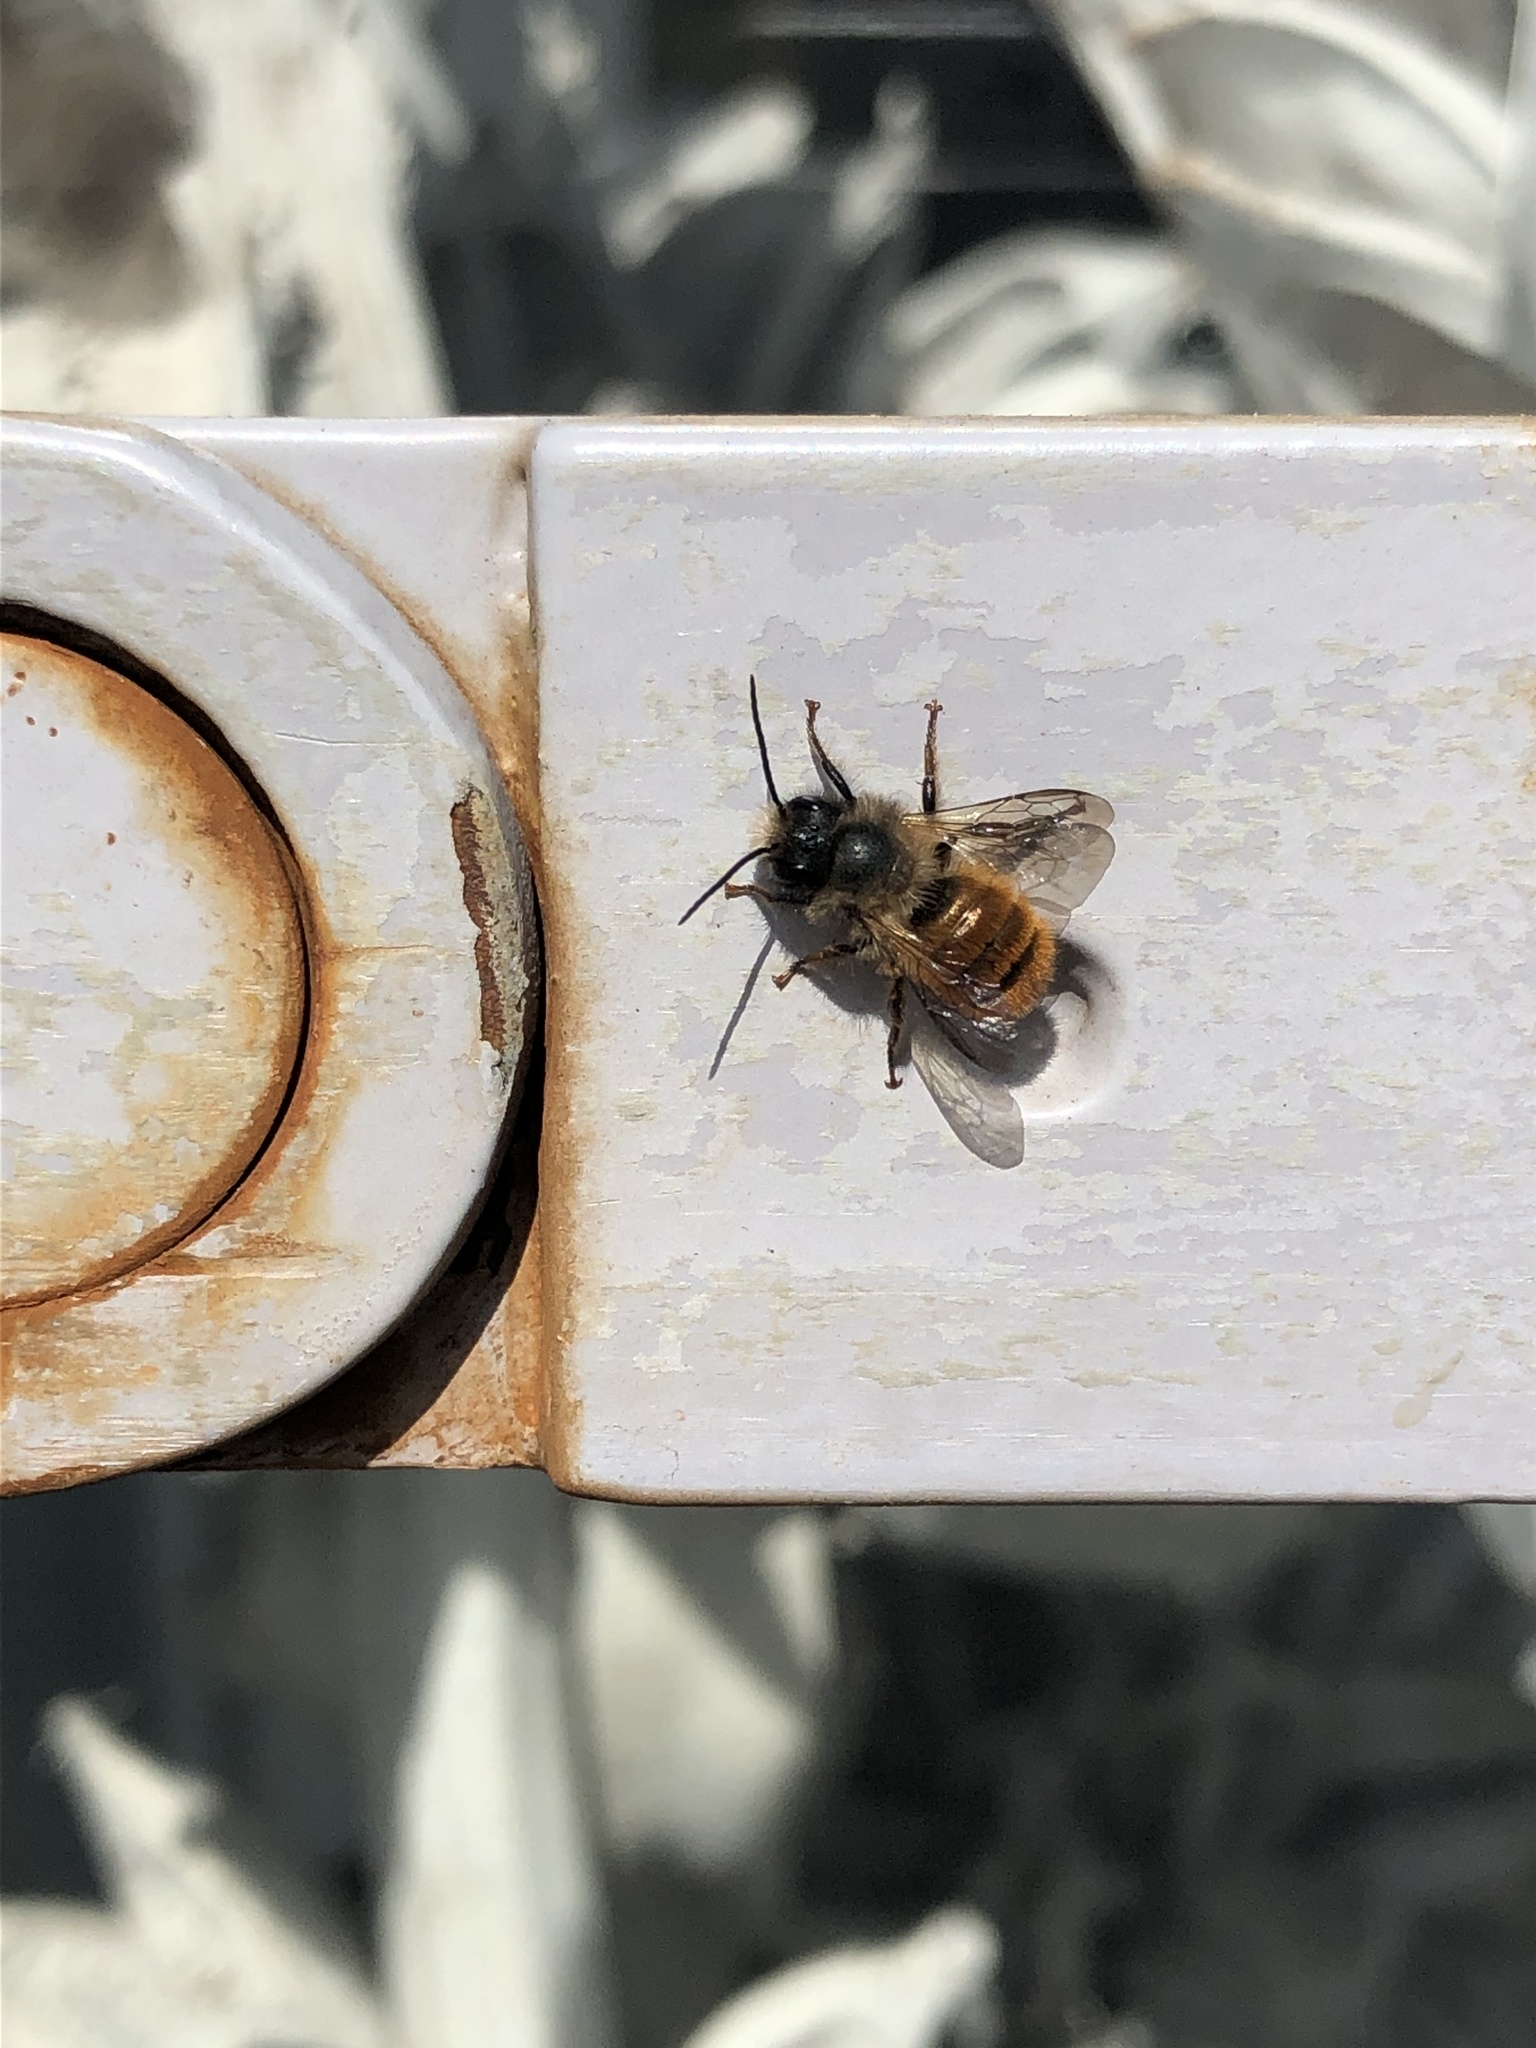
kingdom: Animalia
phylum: Arthropoda
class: Insecta
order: Hymenoptera
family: Megachilidae
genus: Osmia
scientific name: Osmia bicornis
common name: Red mason bee
